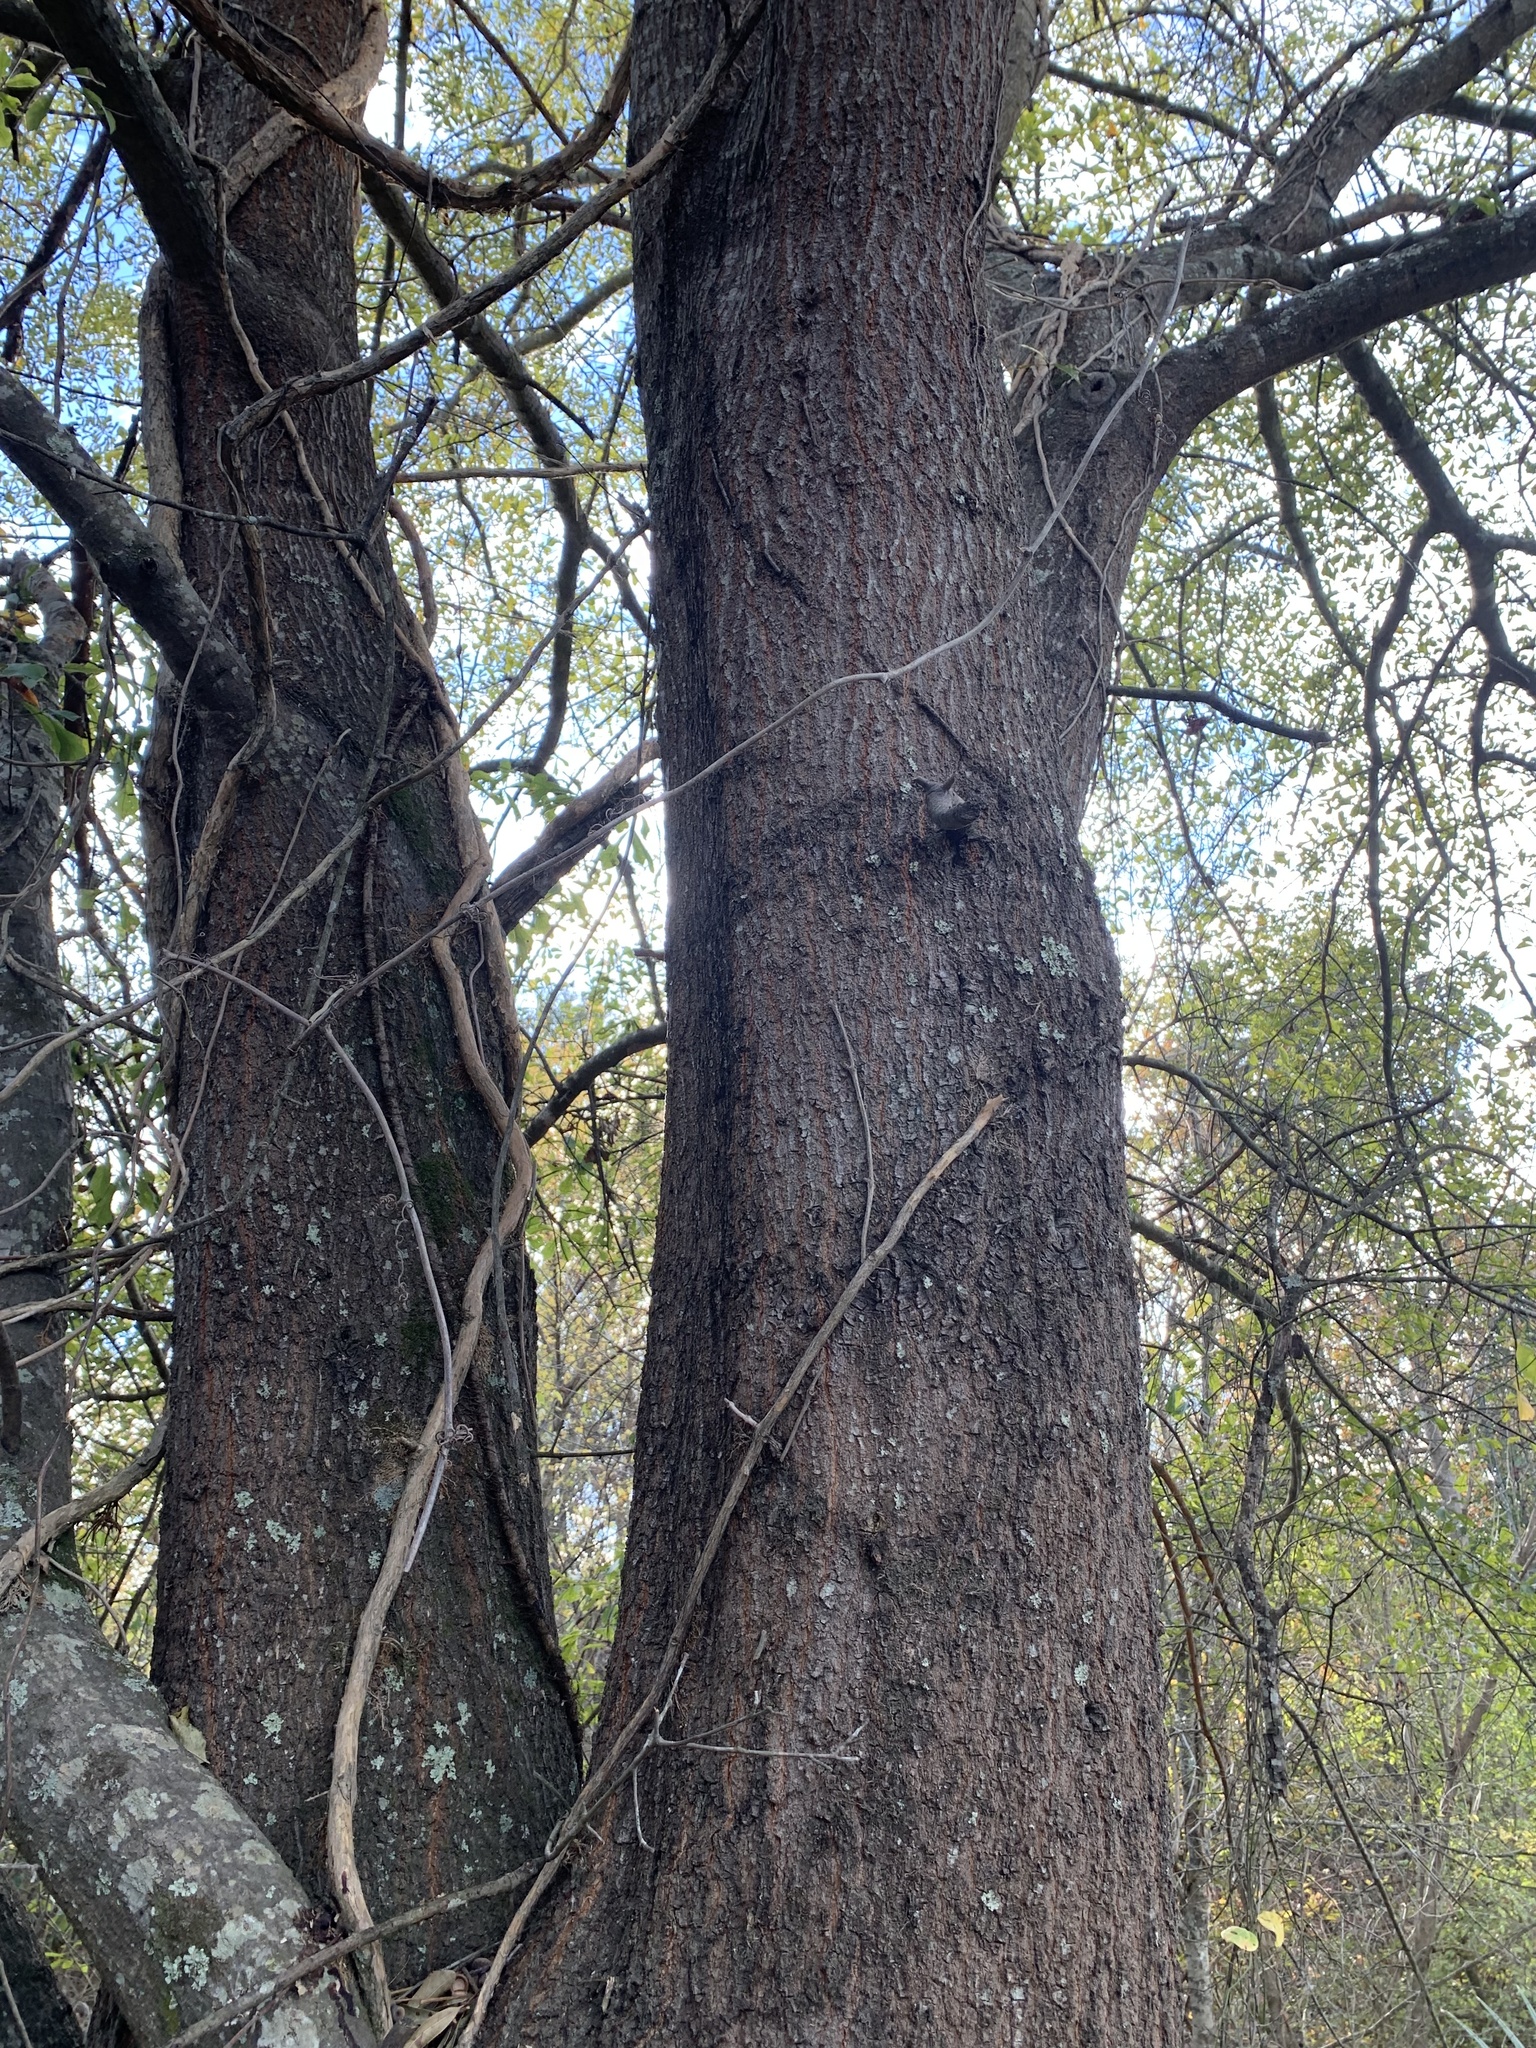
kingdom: Plantae
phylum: Tracheophyta
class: Magnoliopsida
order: Fagales
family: Fagaceae
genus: Quercus
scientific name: Quercus nigra
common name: Water oak
